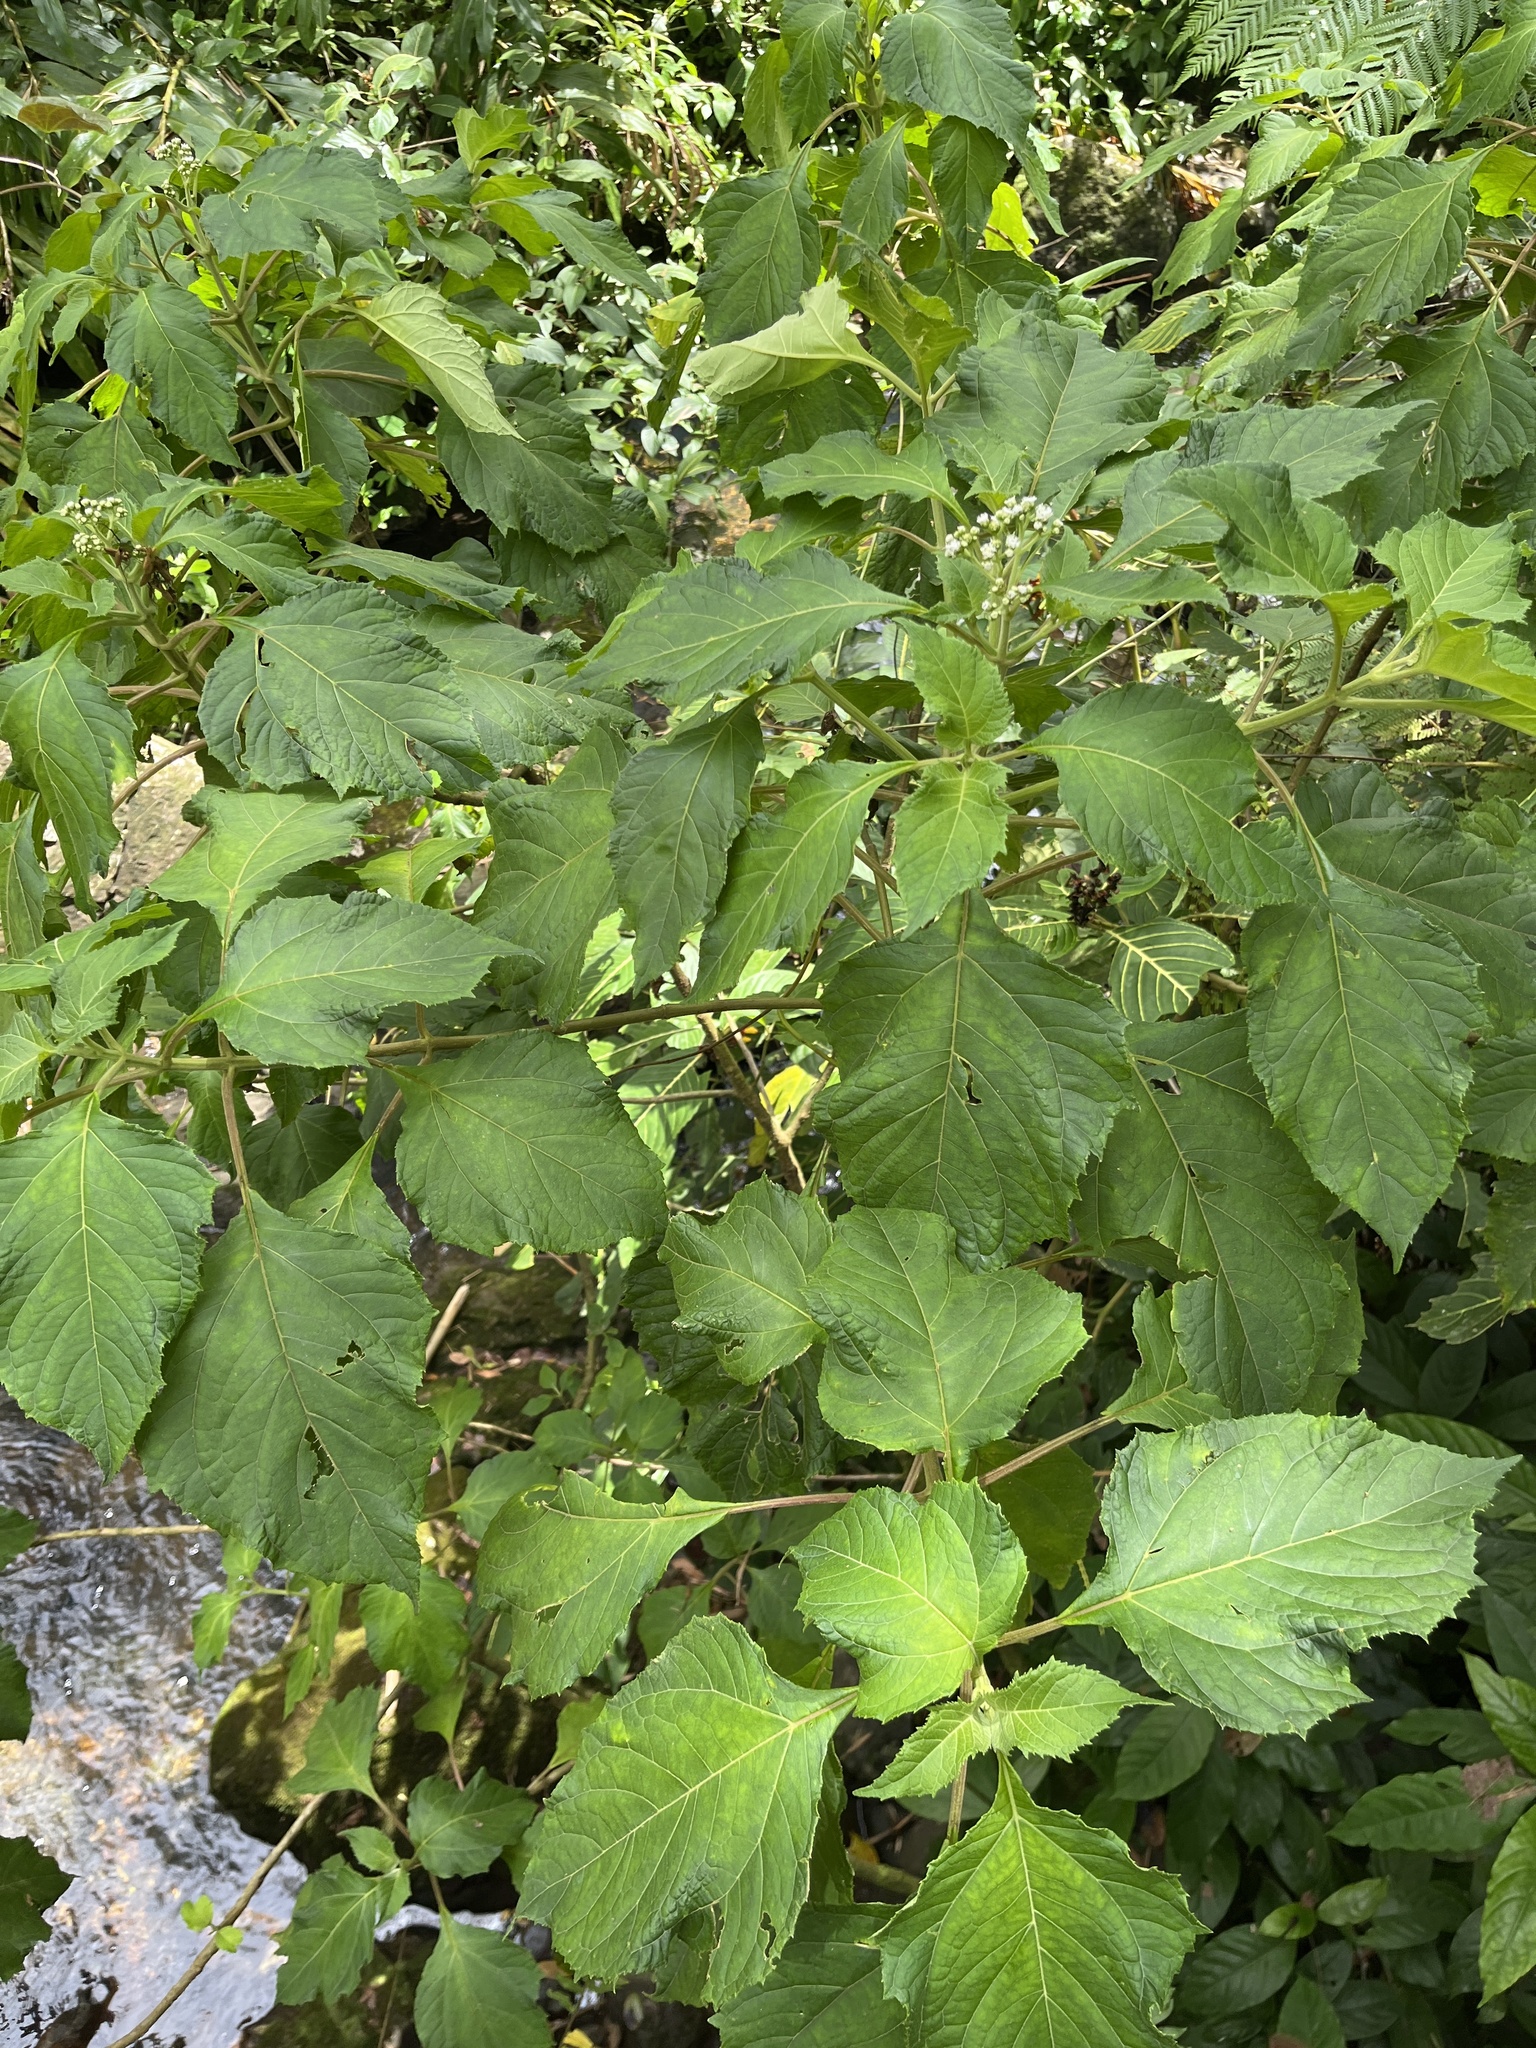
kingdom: Plantae
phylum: Tracheophyta
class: Magnoliopsida
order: Asterales
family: Asteraceae
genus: Clibadium
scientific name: Clibadium erosum
